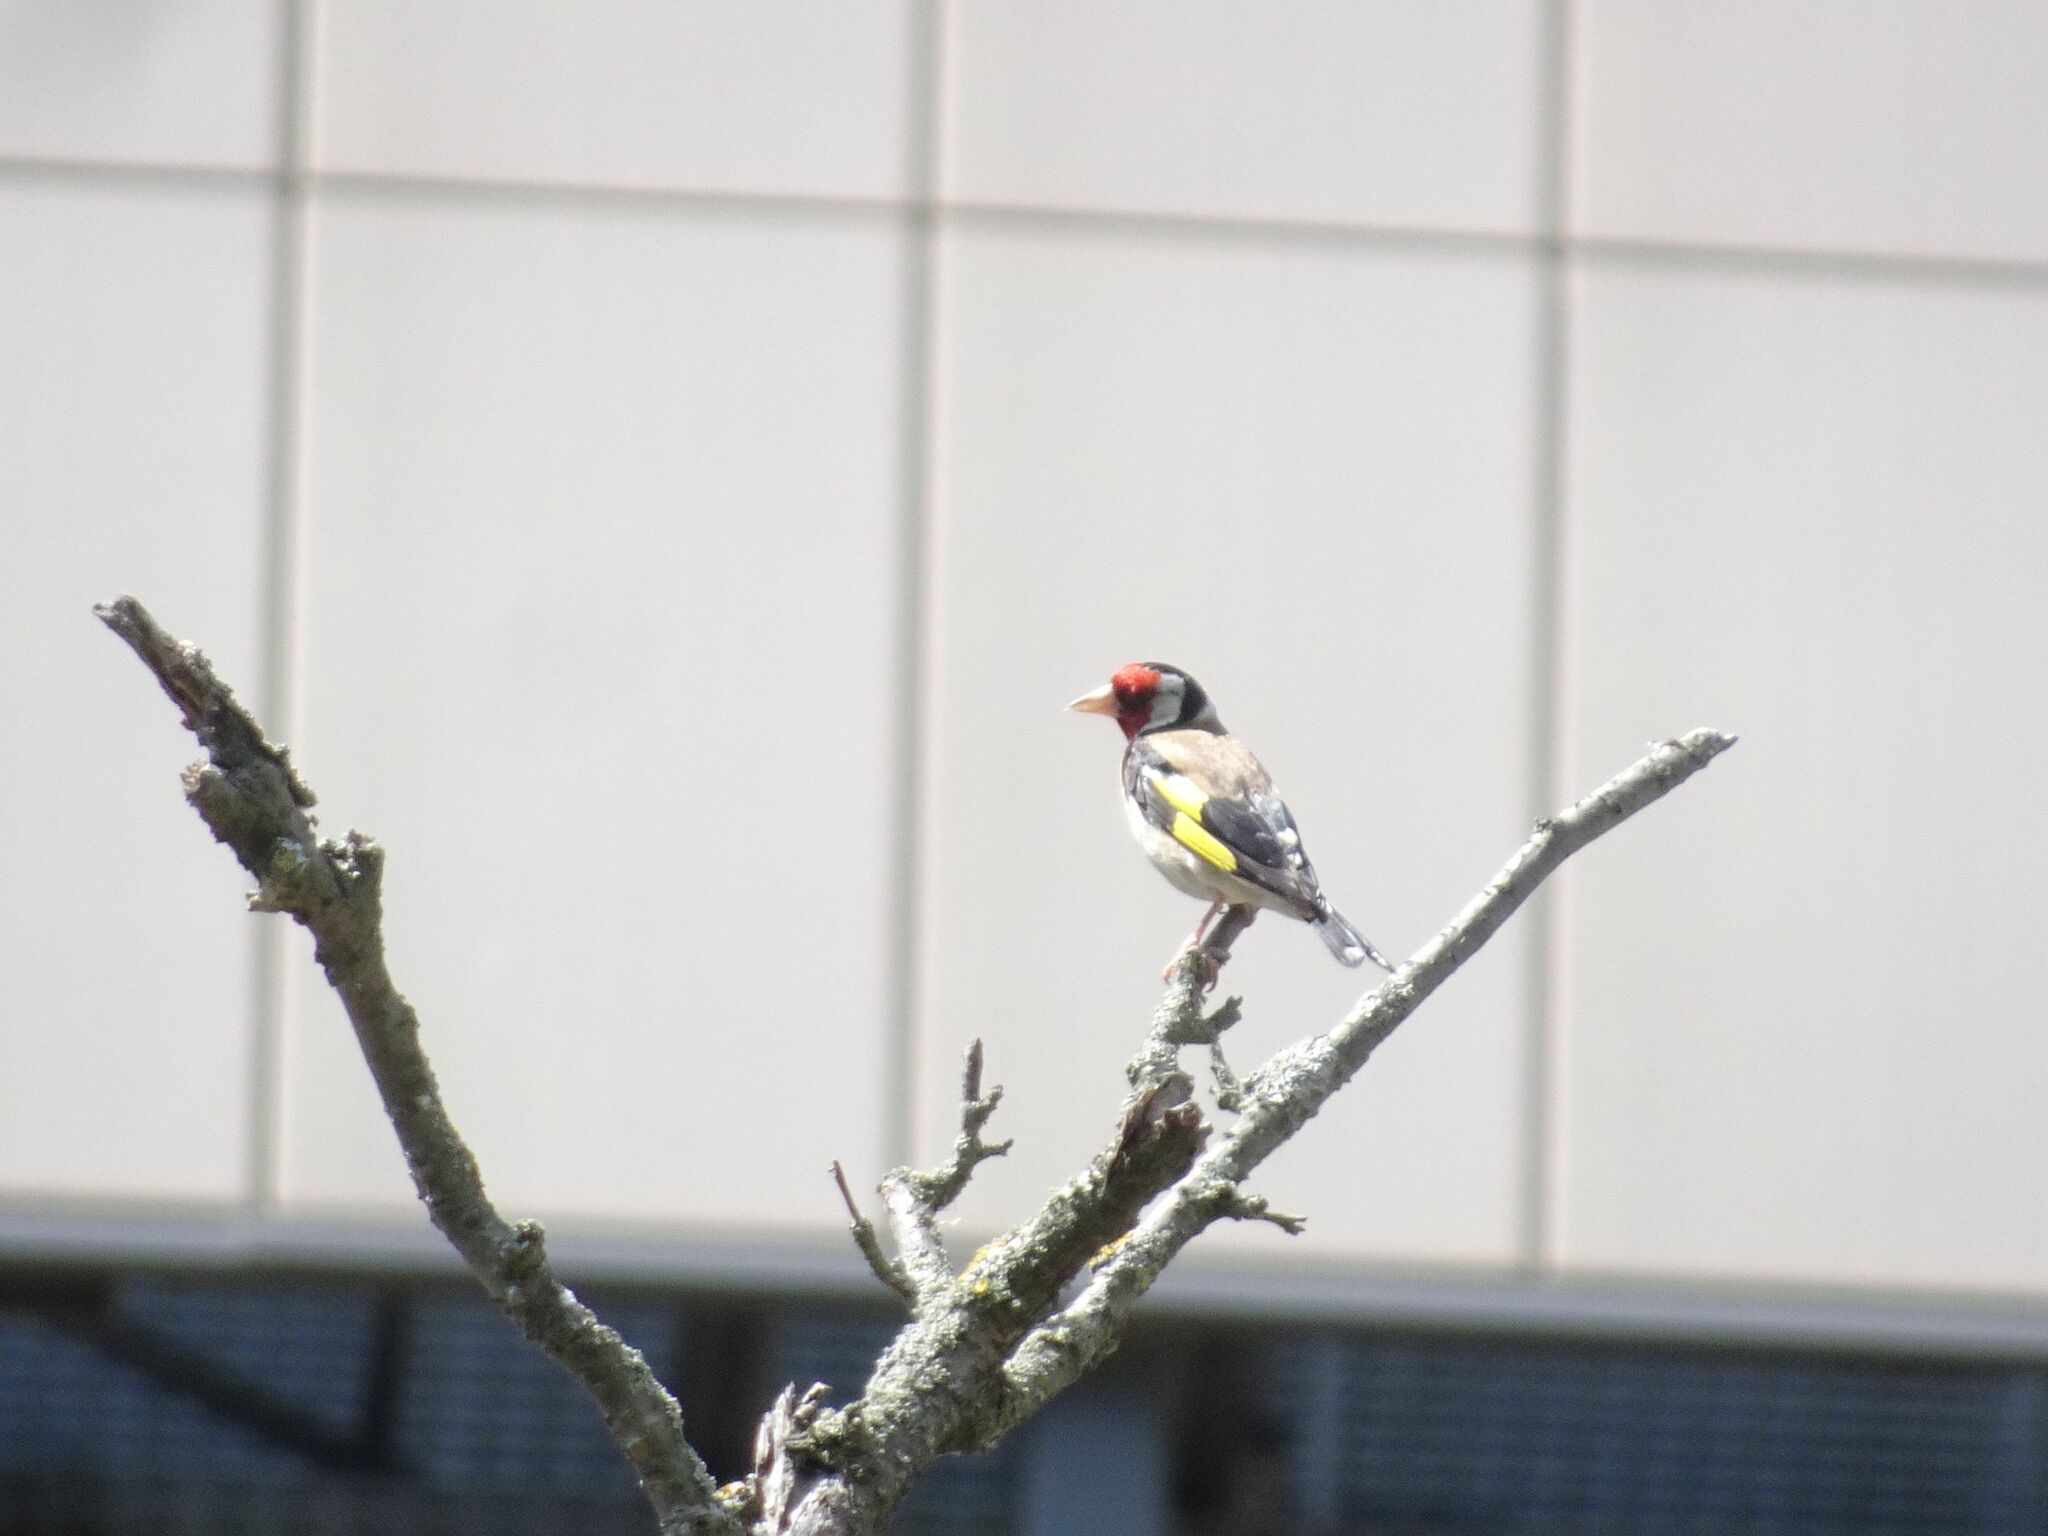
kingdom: Animalia
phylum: Chordata
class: Aves
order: Passeriformes
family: Fringillidae
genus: Carduelis
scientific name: Carduelis carduelis
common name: European goldfinch
